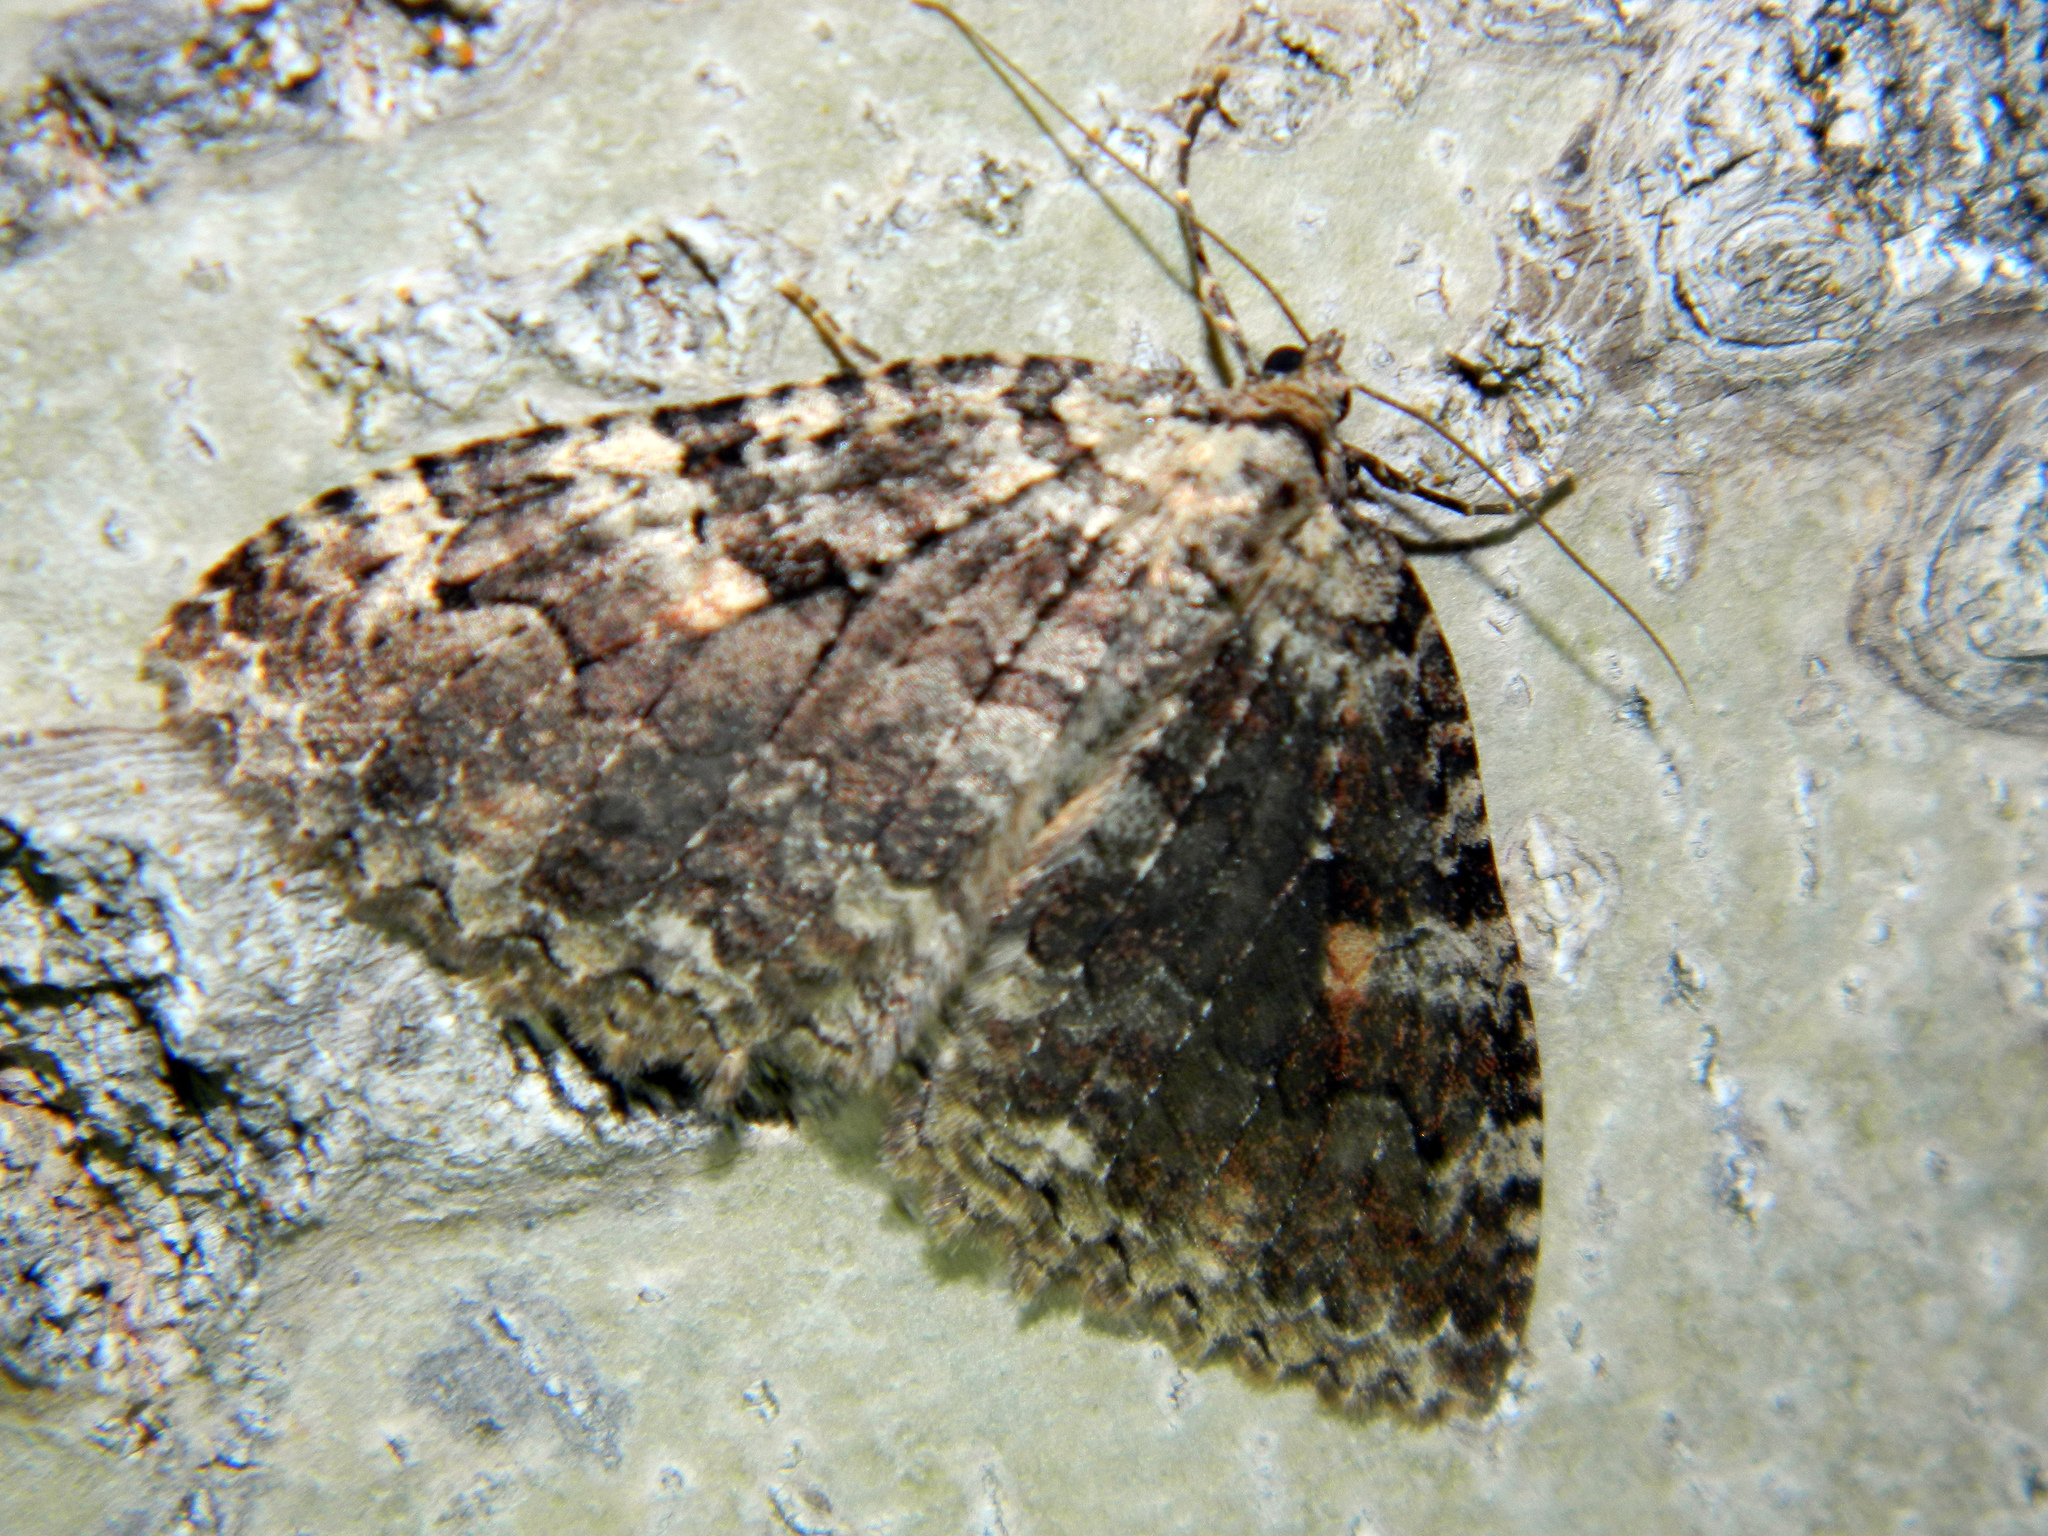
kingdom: Animalia
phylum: Arthropoda
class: Insecta
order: Lepidoptera
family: Geometridae
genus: Triphosa
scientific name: Triphosa haesitata
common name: Tissue moth
